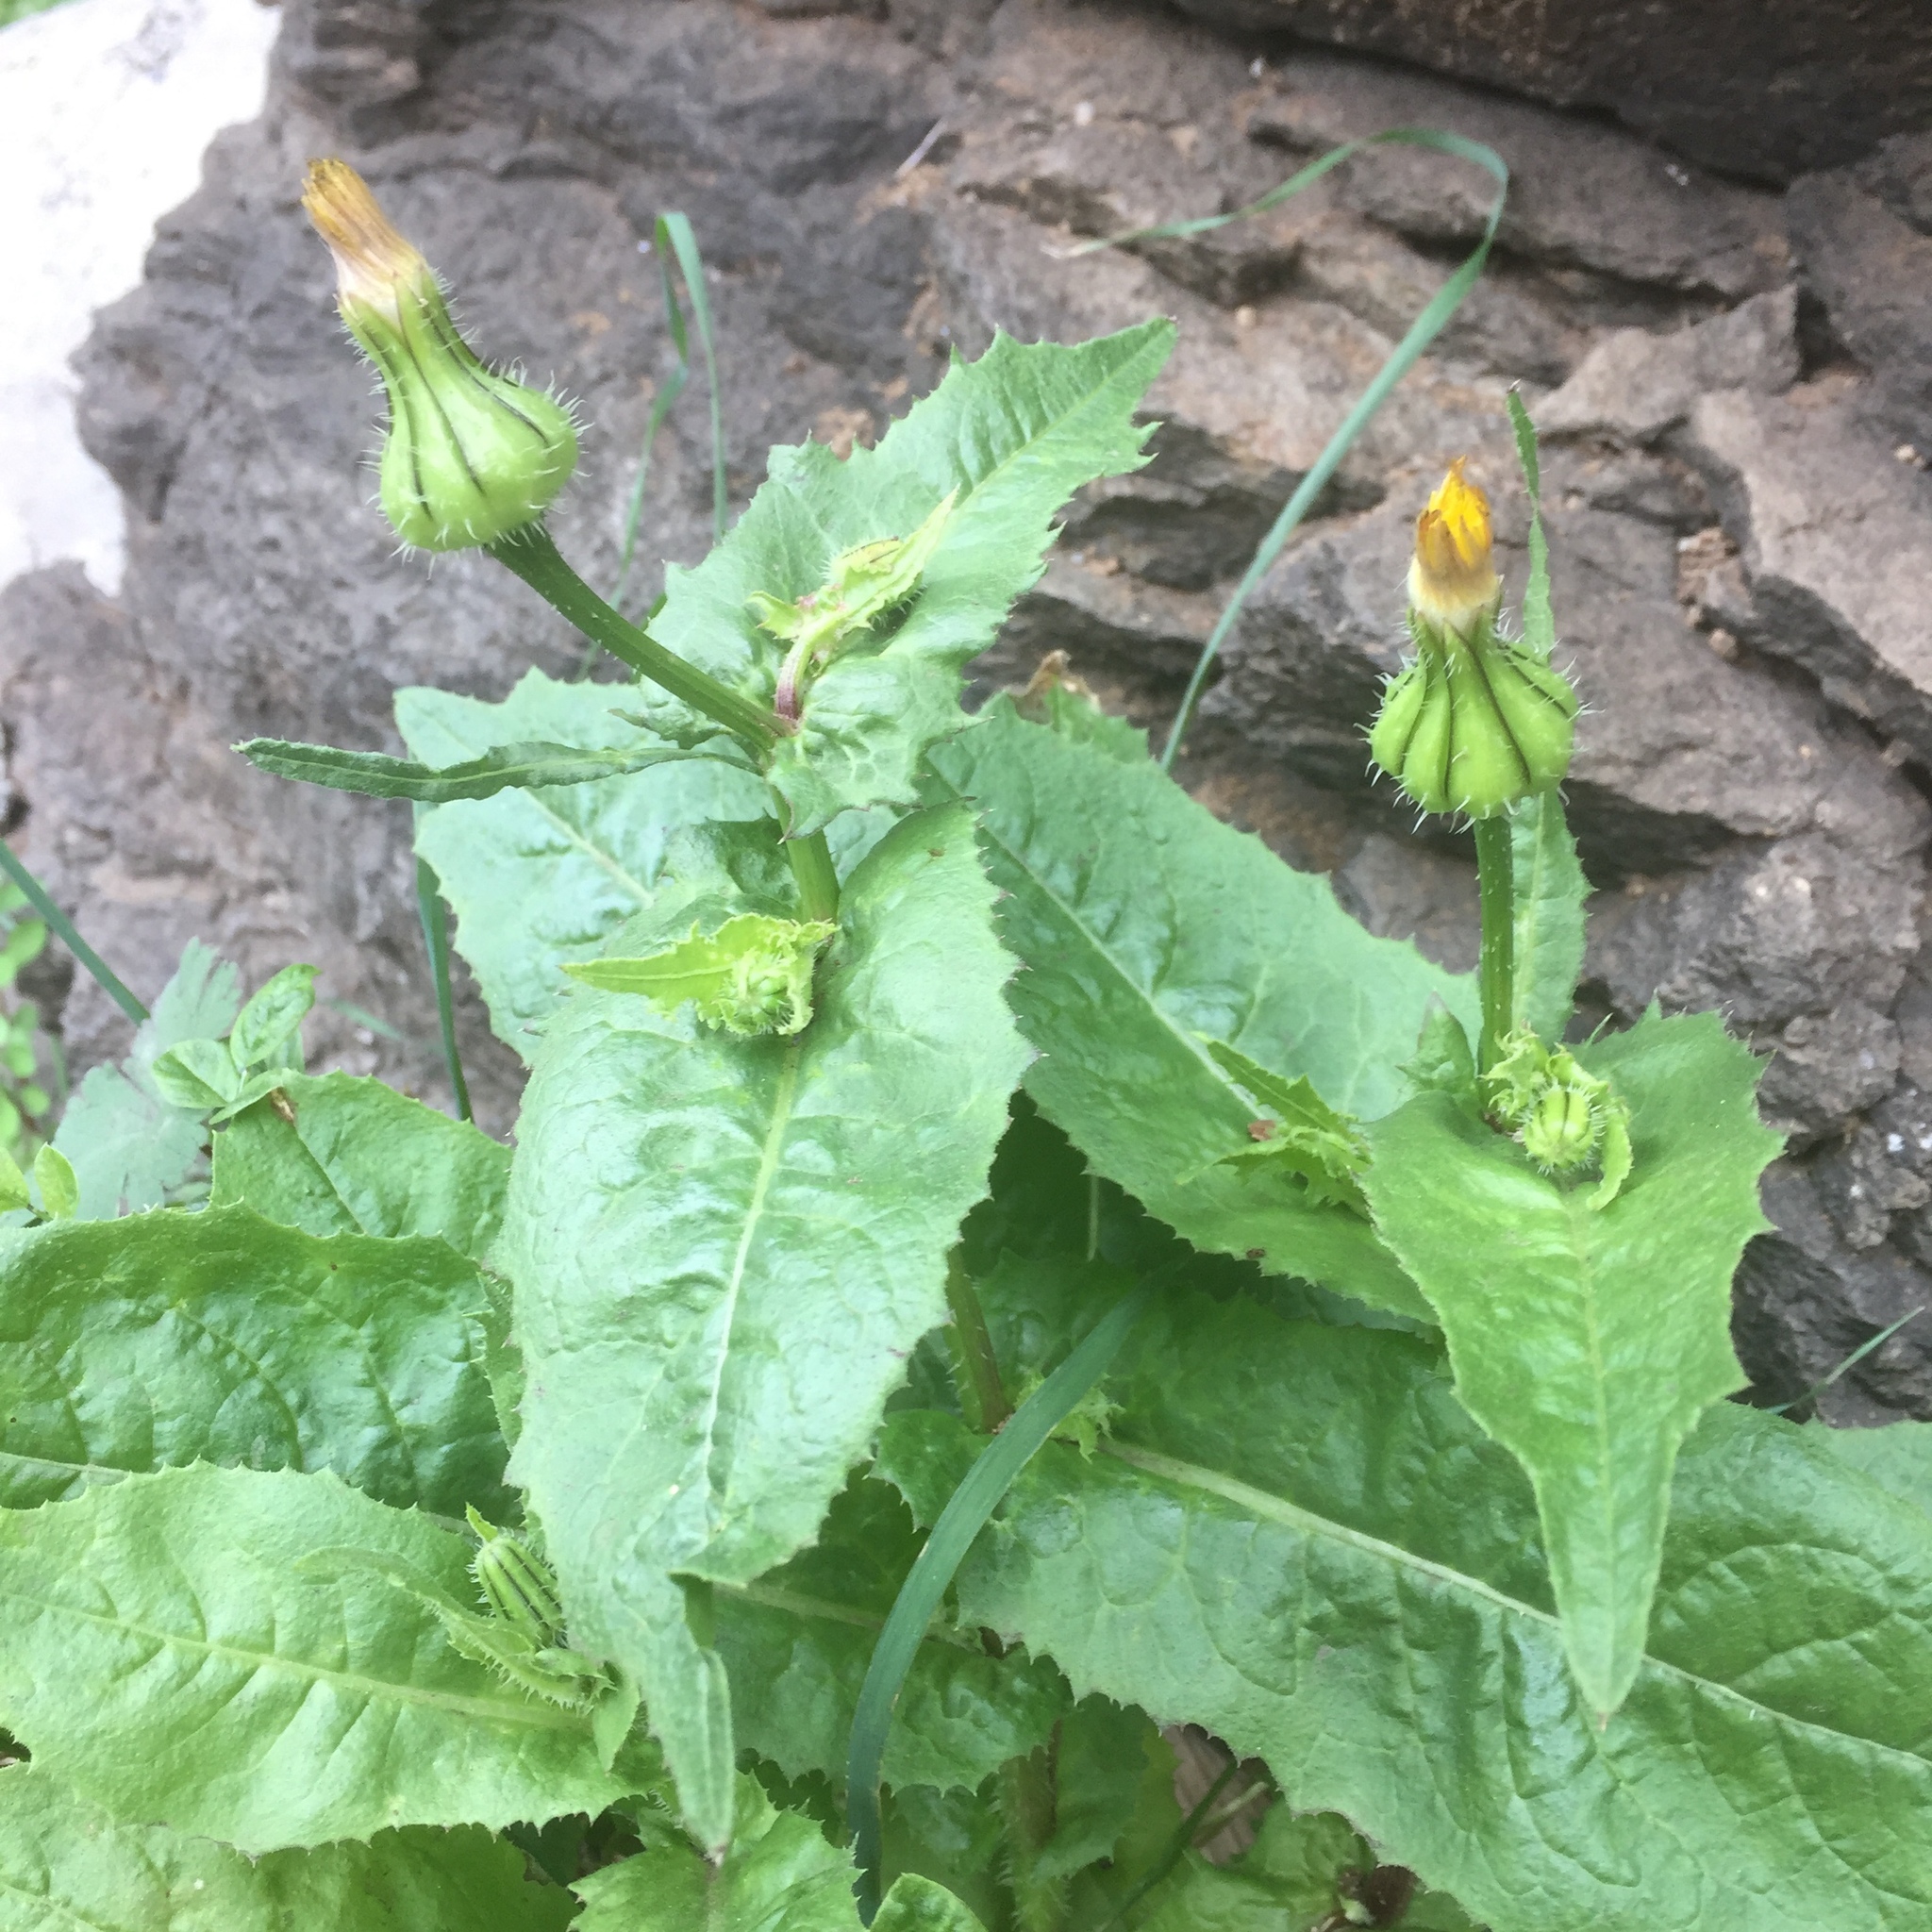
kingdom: Plantae
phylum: Tracheophyta
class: Magnoliopsida
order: Asterales
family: Asteraceae
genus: Urospermum
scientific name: Urospermum picroides
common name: False hawkbit
